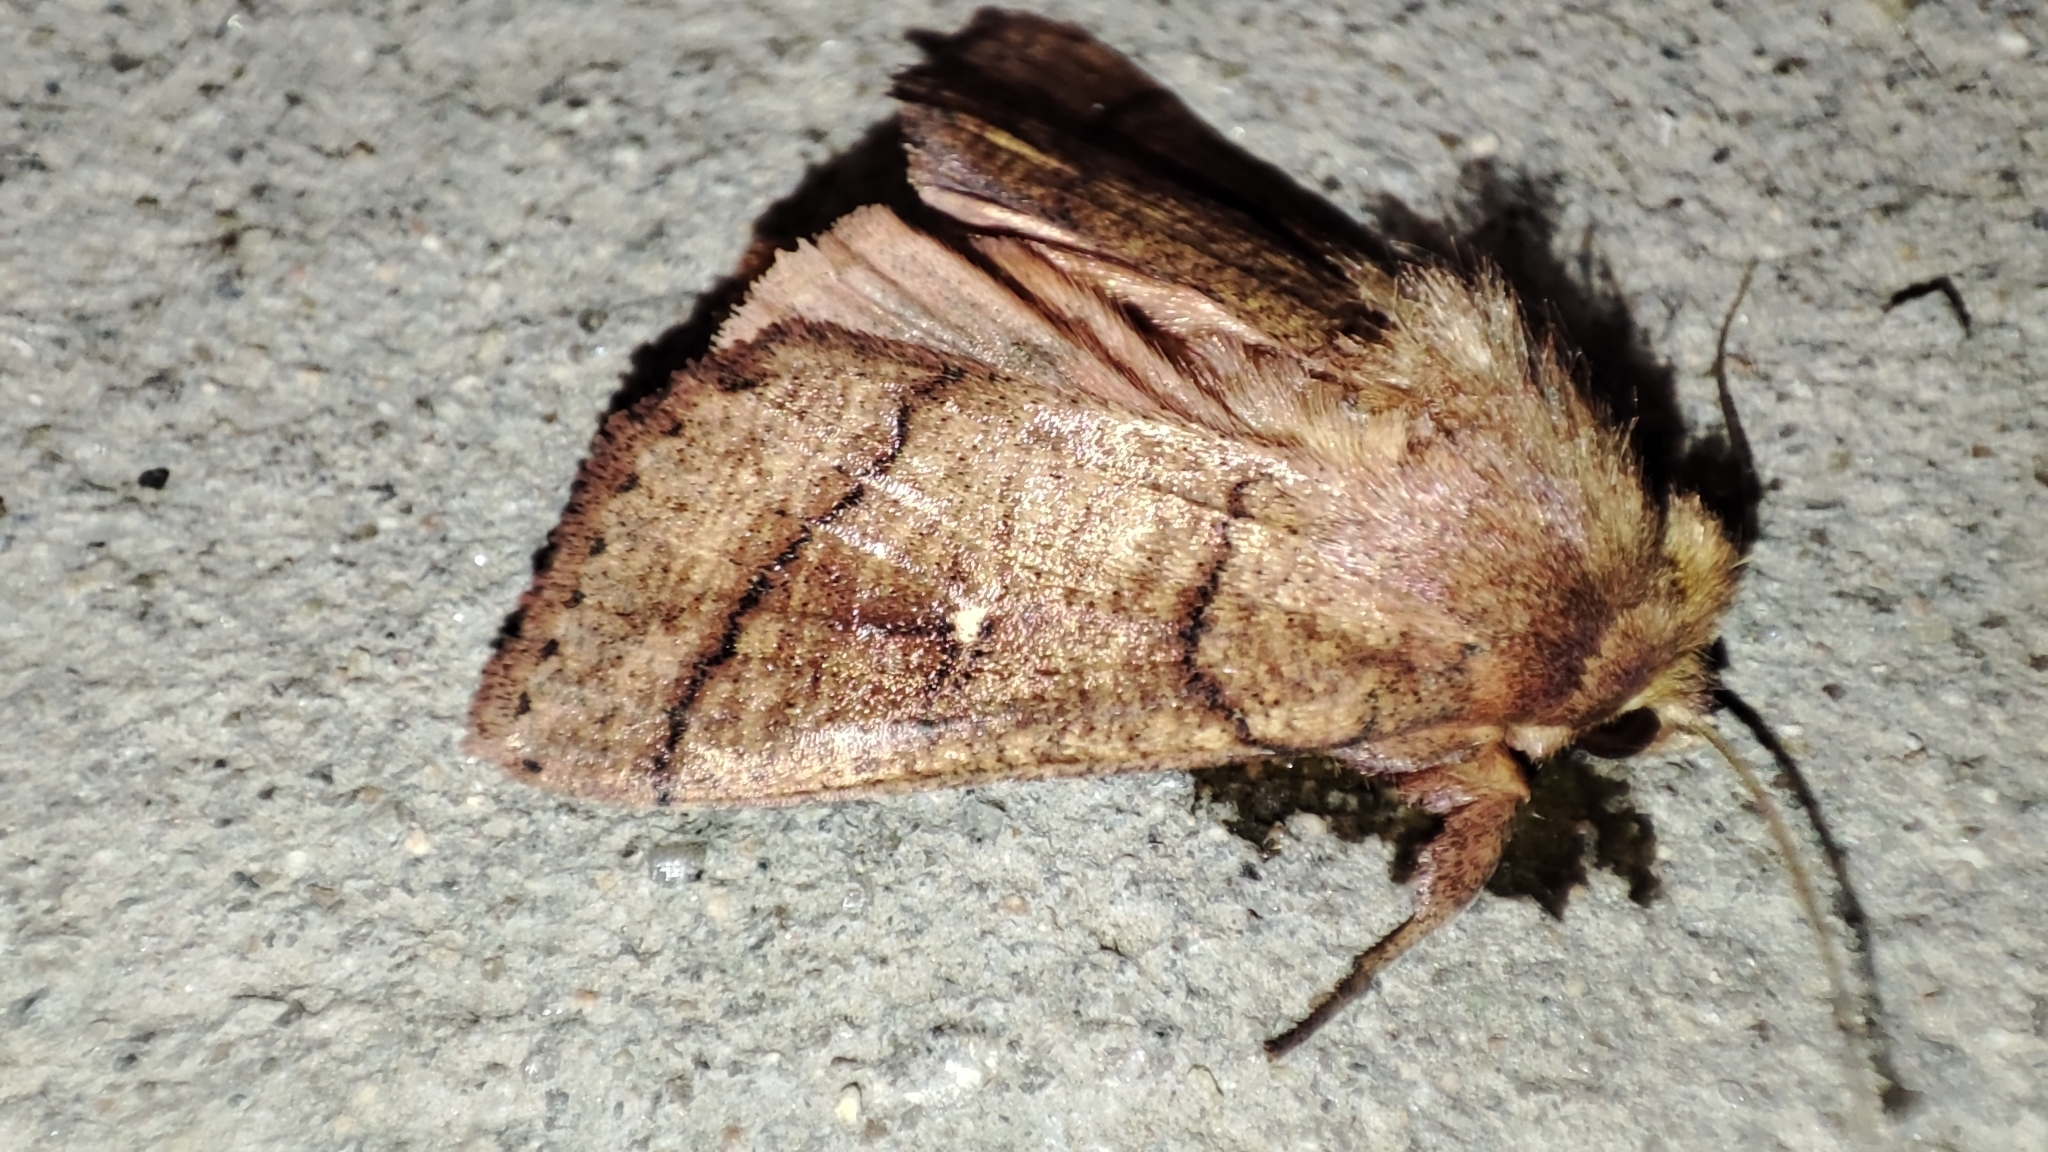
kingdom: Animalia
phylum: Arthropoda
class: Insecta
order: Lepidoptera
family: Noctuidae
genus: Mythimna
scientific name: Mythimna turca
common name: Double line
